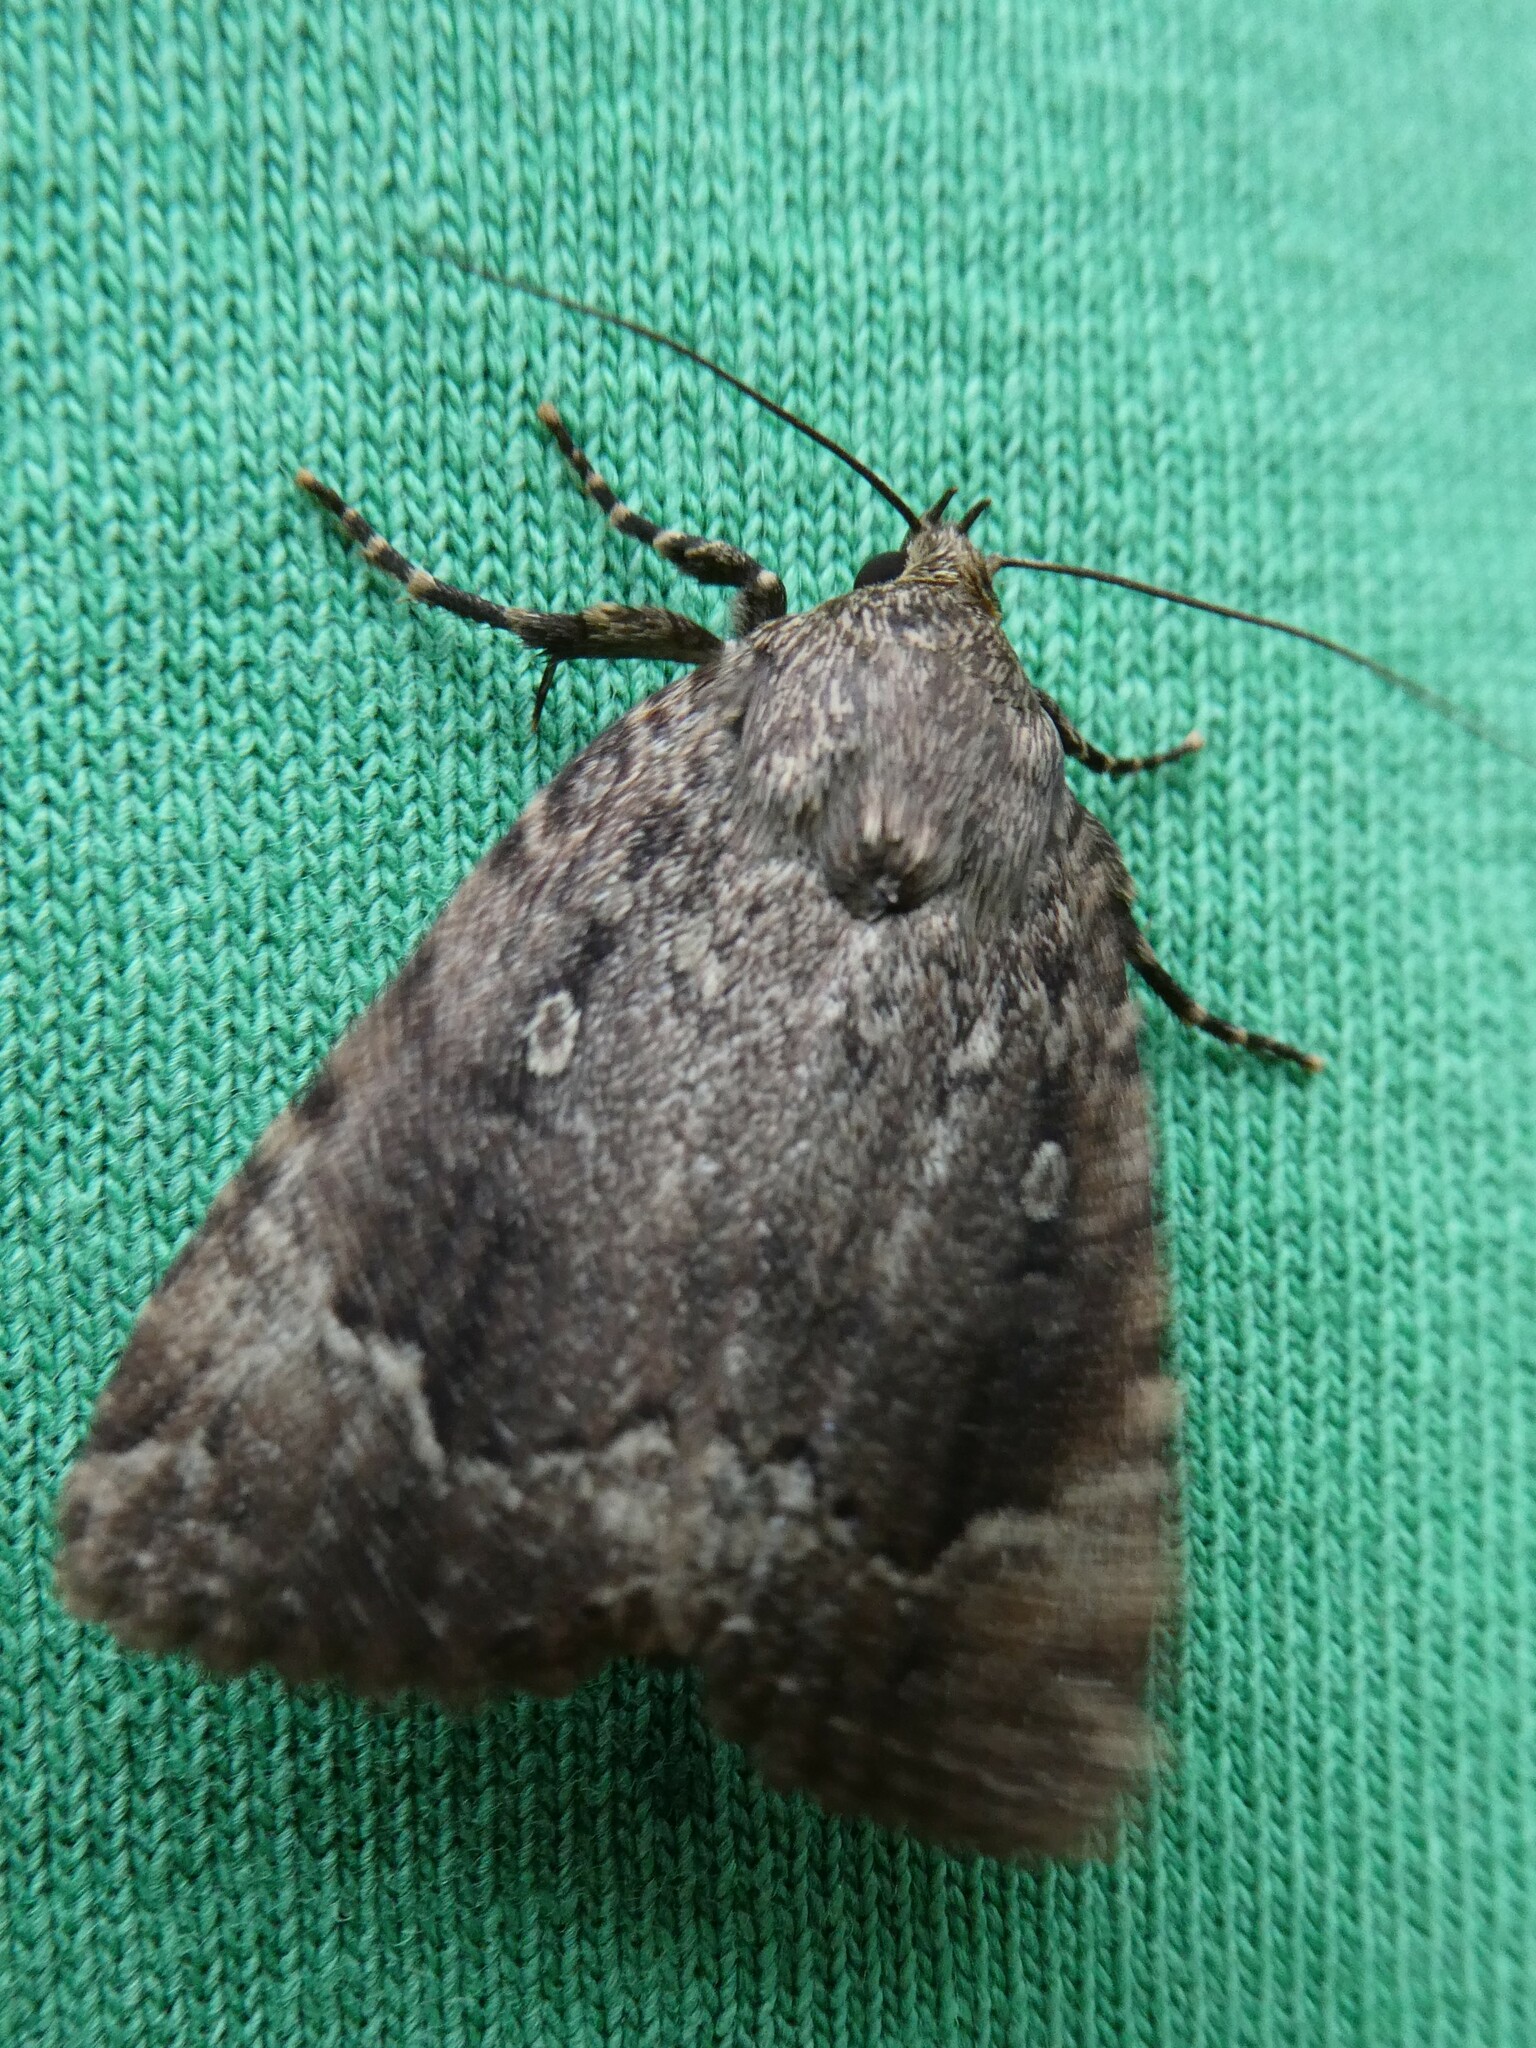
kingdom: Animalia
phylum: Arthropoda
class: Insecta
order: Lepidoptera
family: Noctuidae
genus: Amphipyra
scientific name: Amphipyra pyramidoides
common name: American copper underwing
